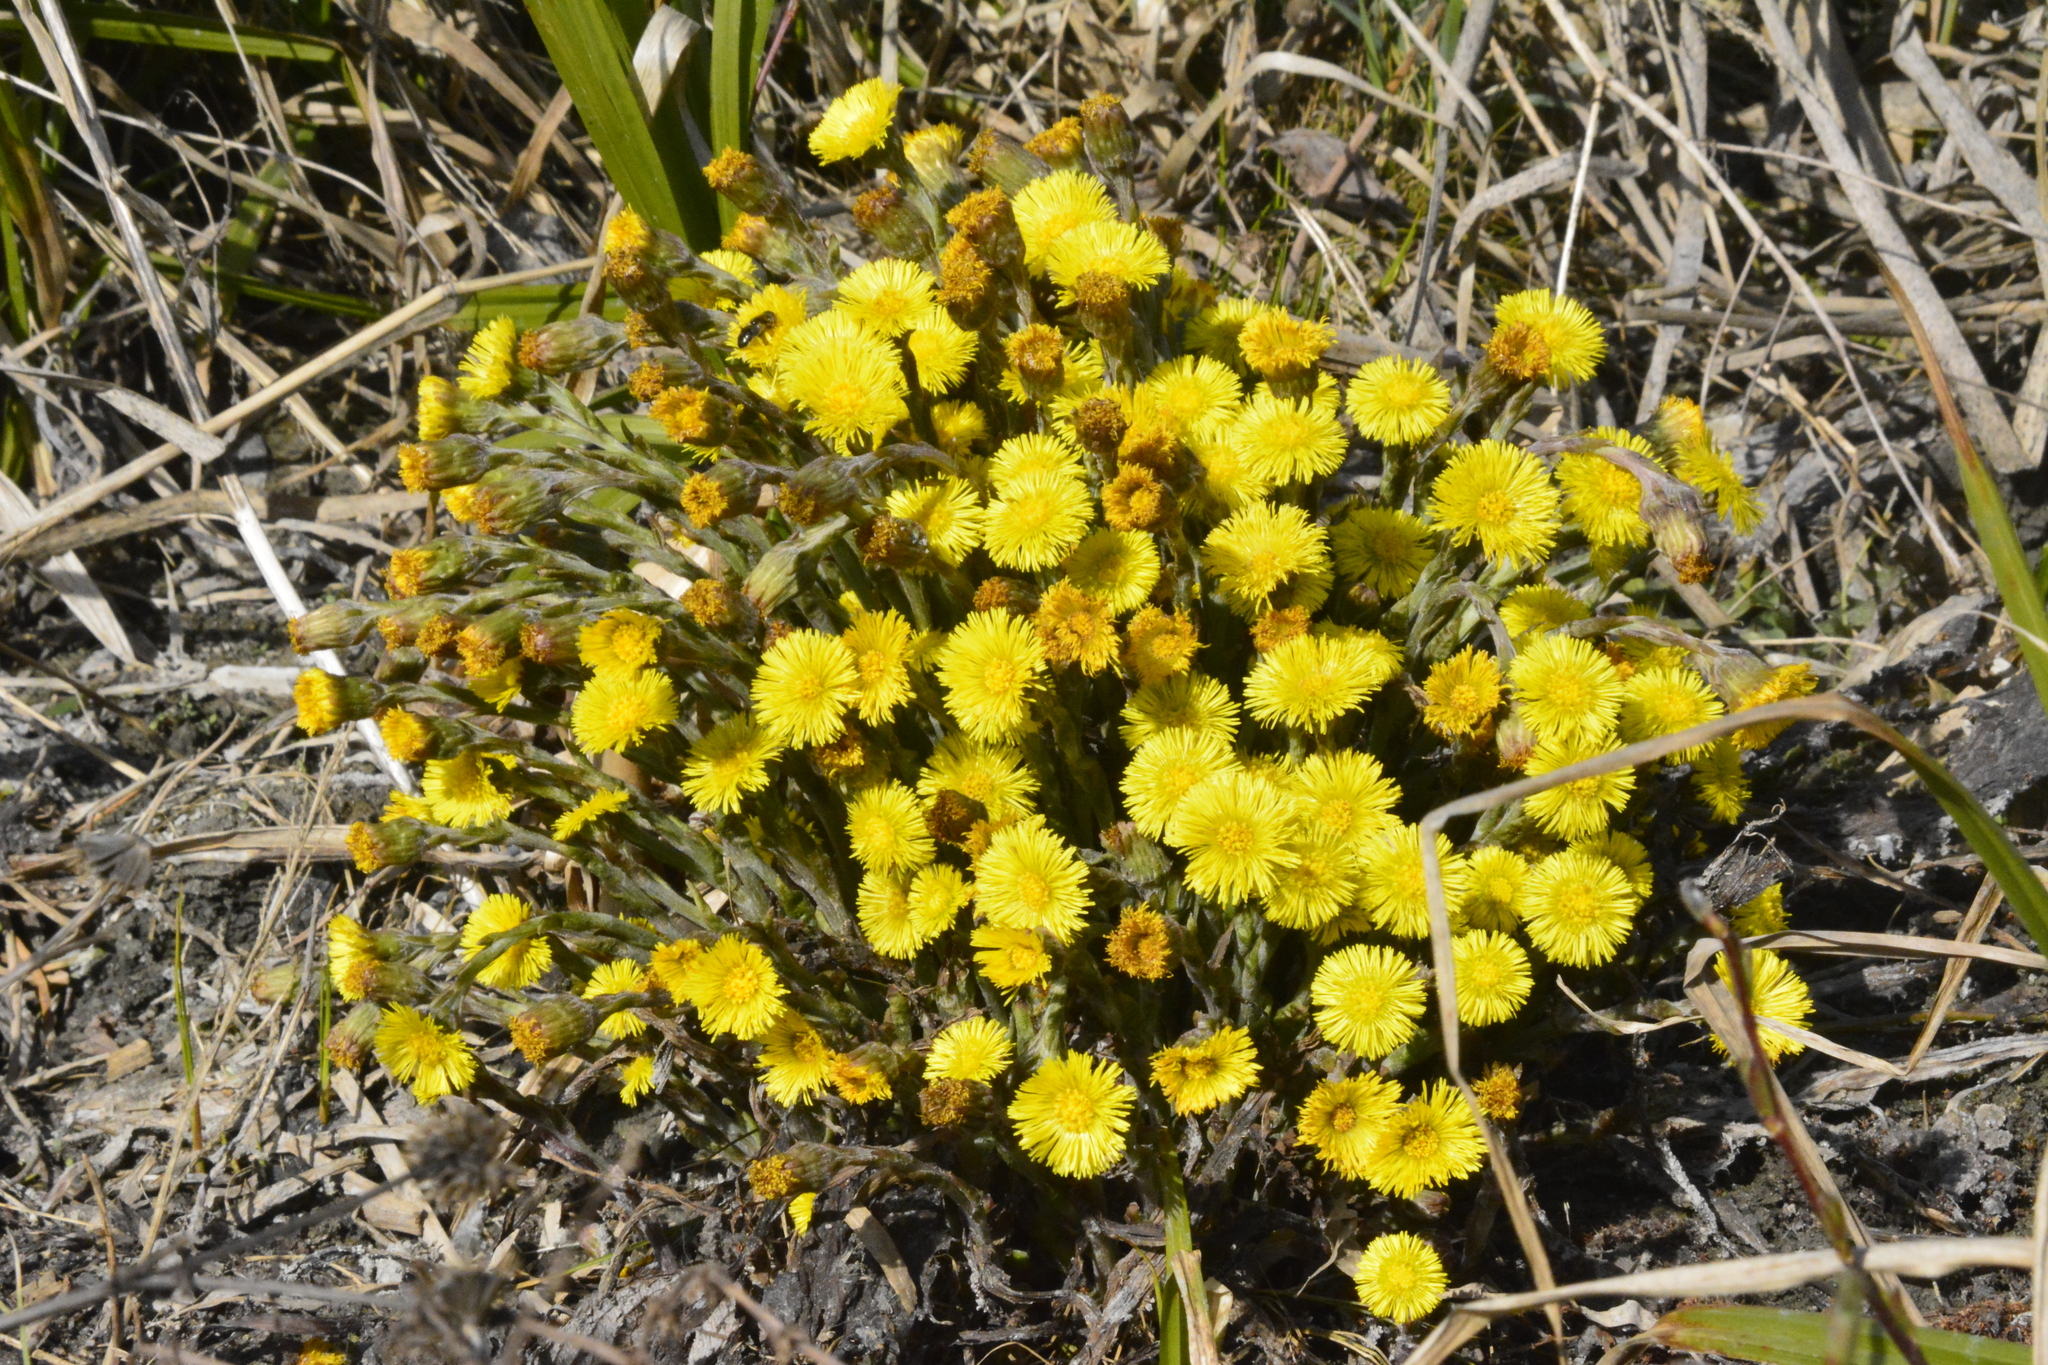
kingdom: Plantae
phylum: Tracheophyta
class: Magnoliopsida
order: Asterales
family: Asteraceae
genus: Tussilago
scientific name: Tussilago farfara
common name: Coltsfoot
